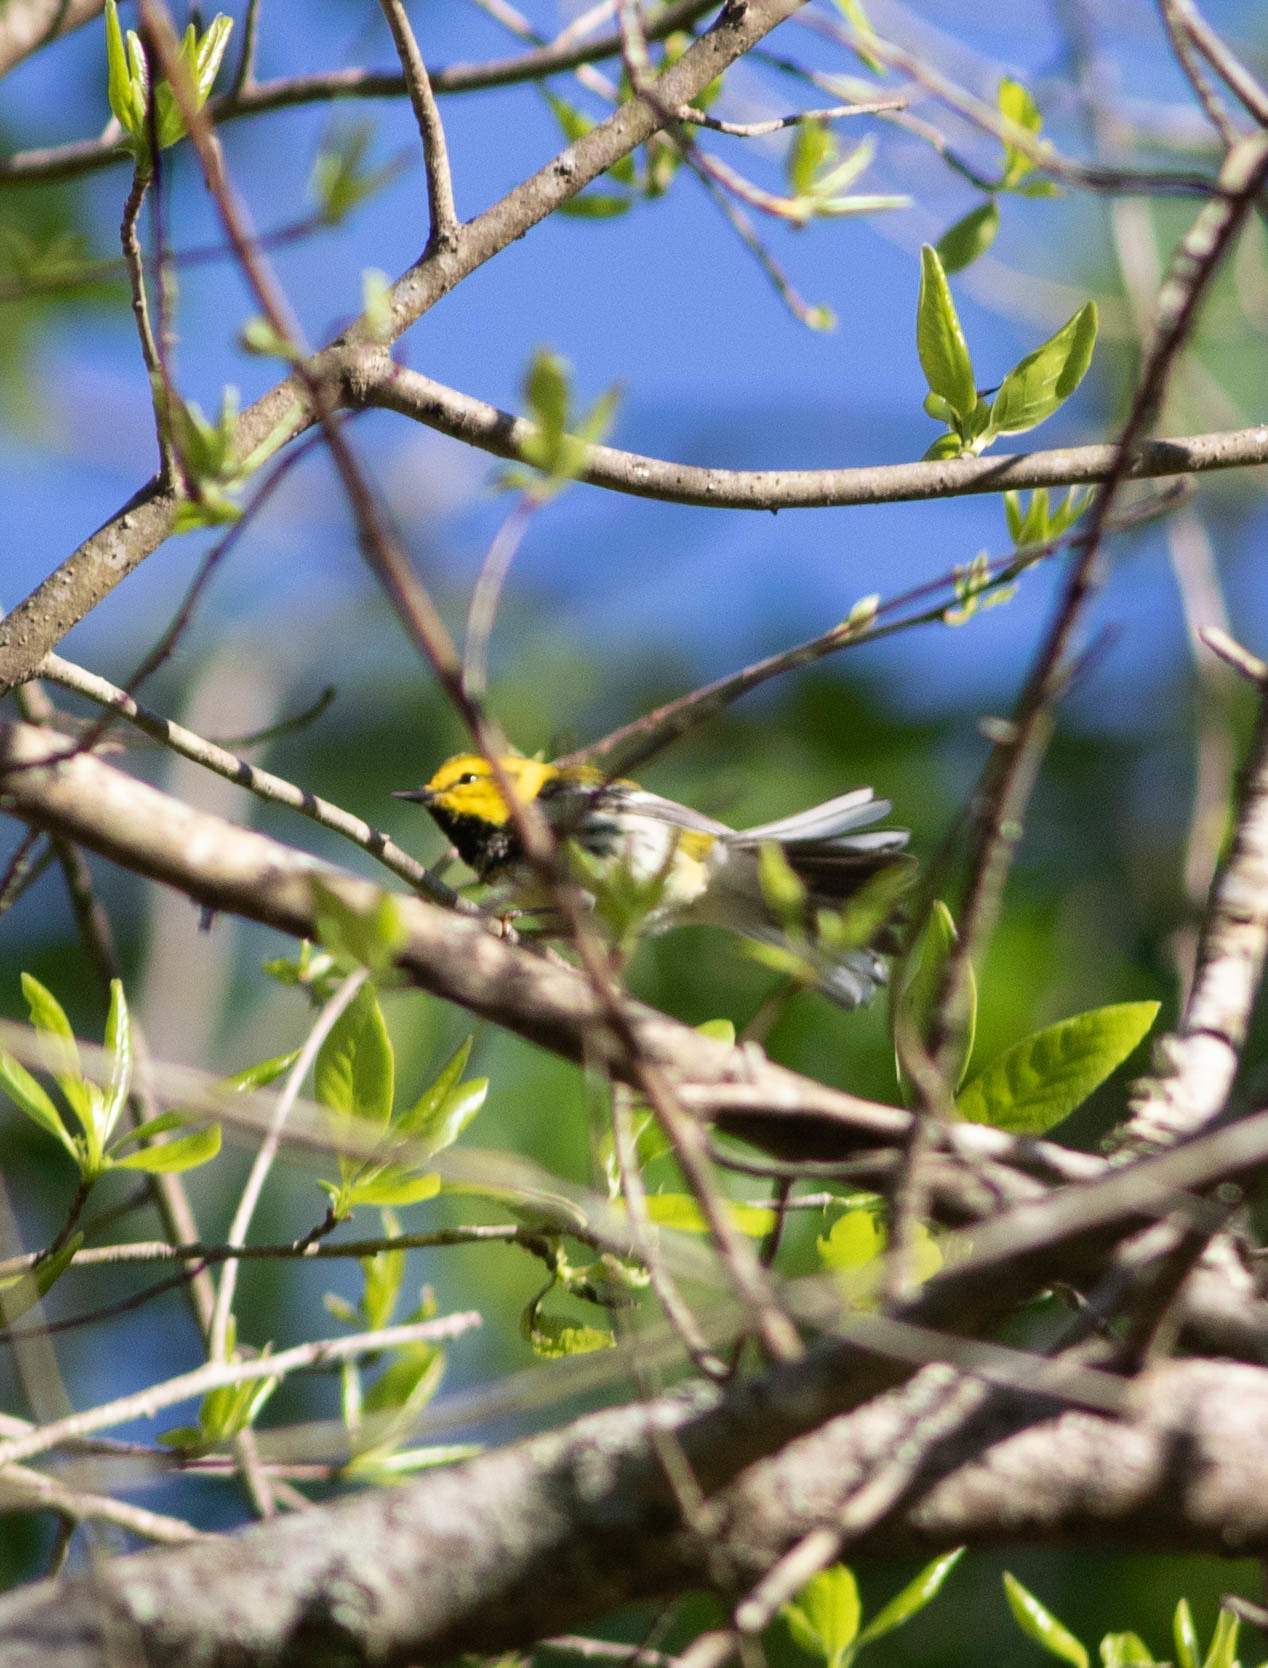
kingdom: Animalia
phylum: Chordata
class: Aves
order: Passeriformes
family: Parulidae
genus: Setophaga
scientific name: Setophaga virens
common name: Black-throated green warbler
